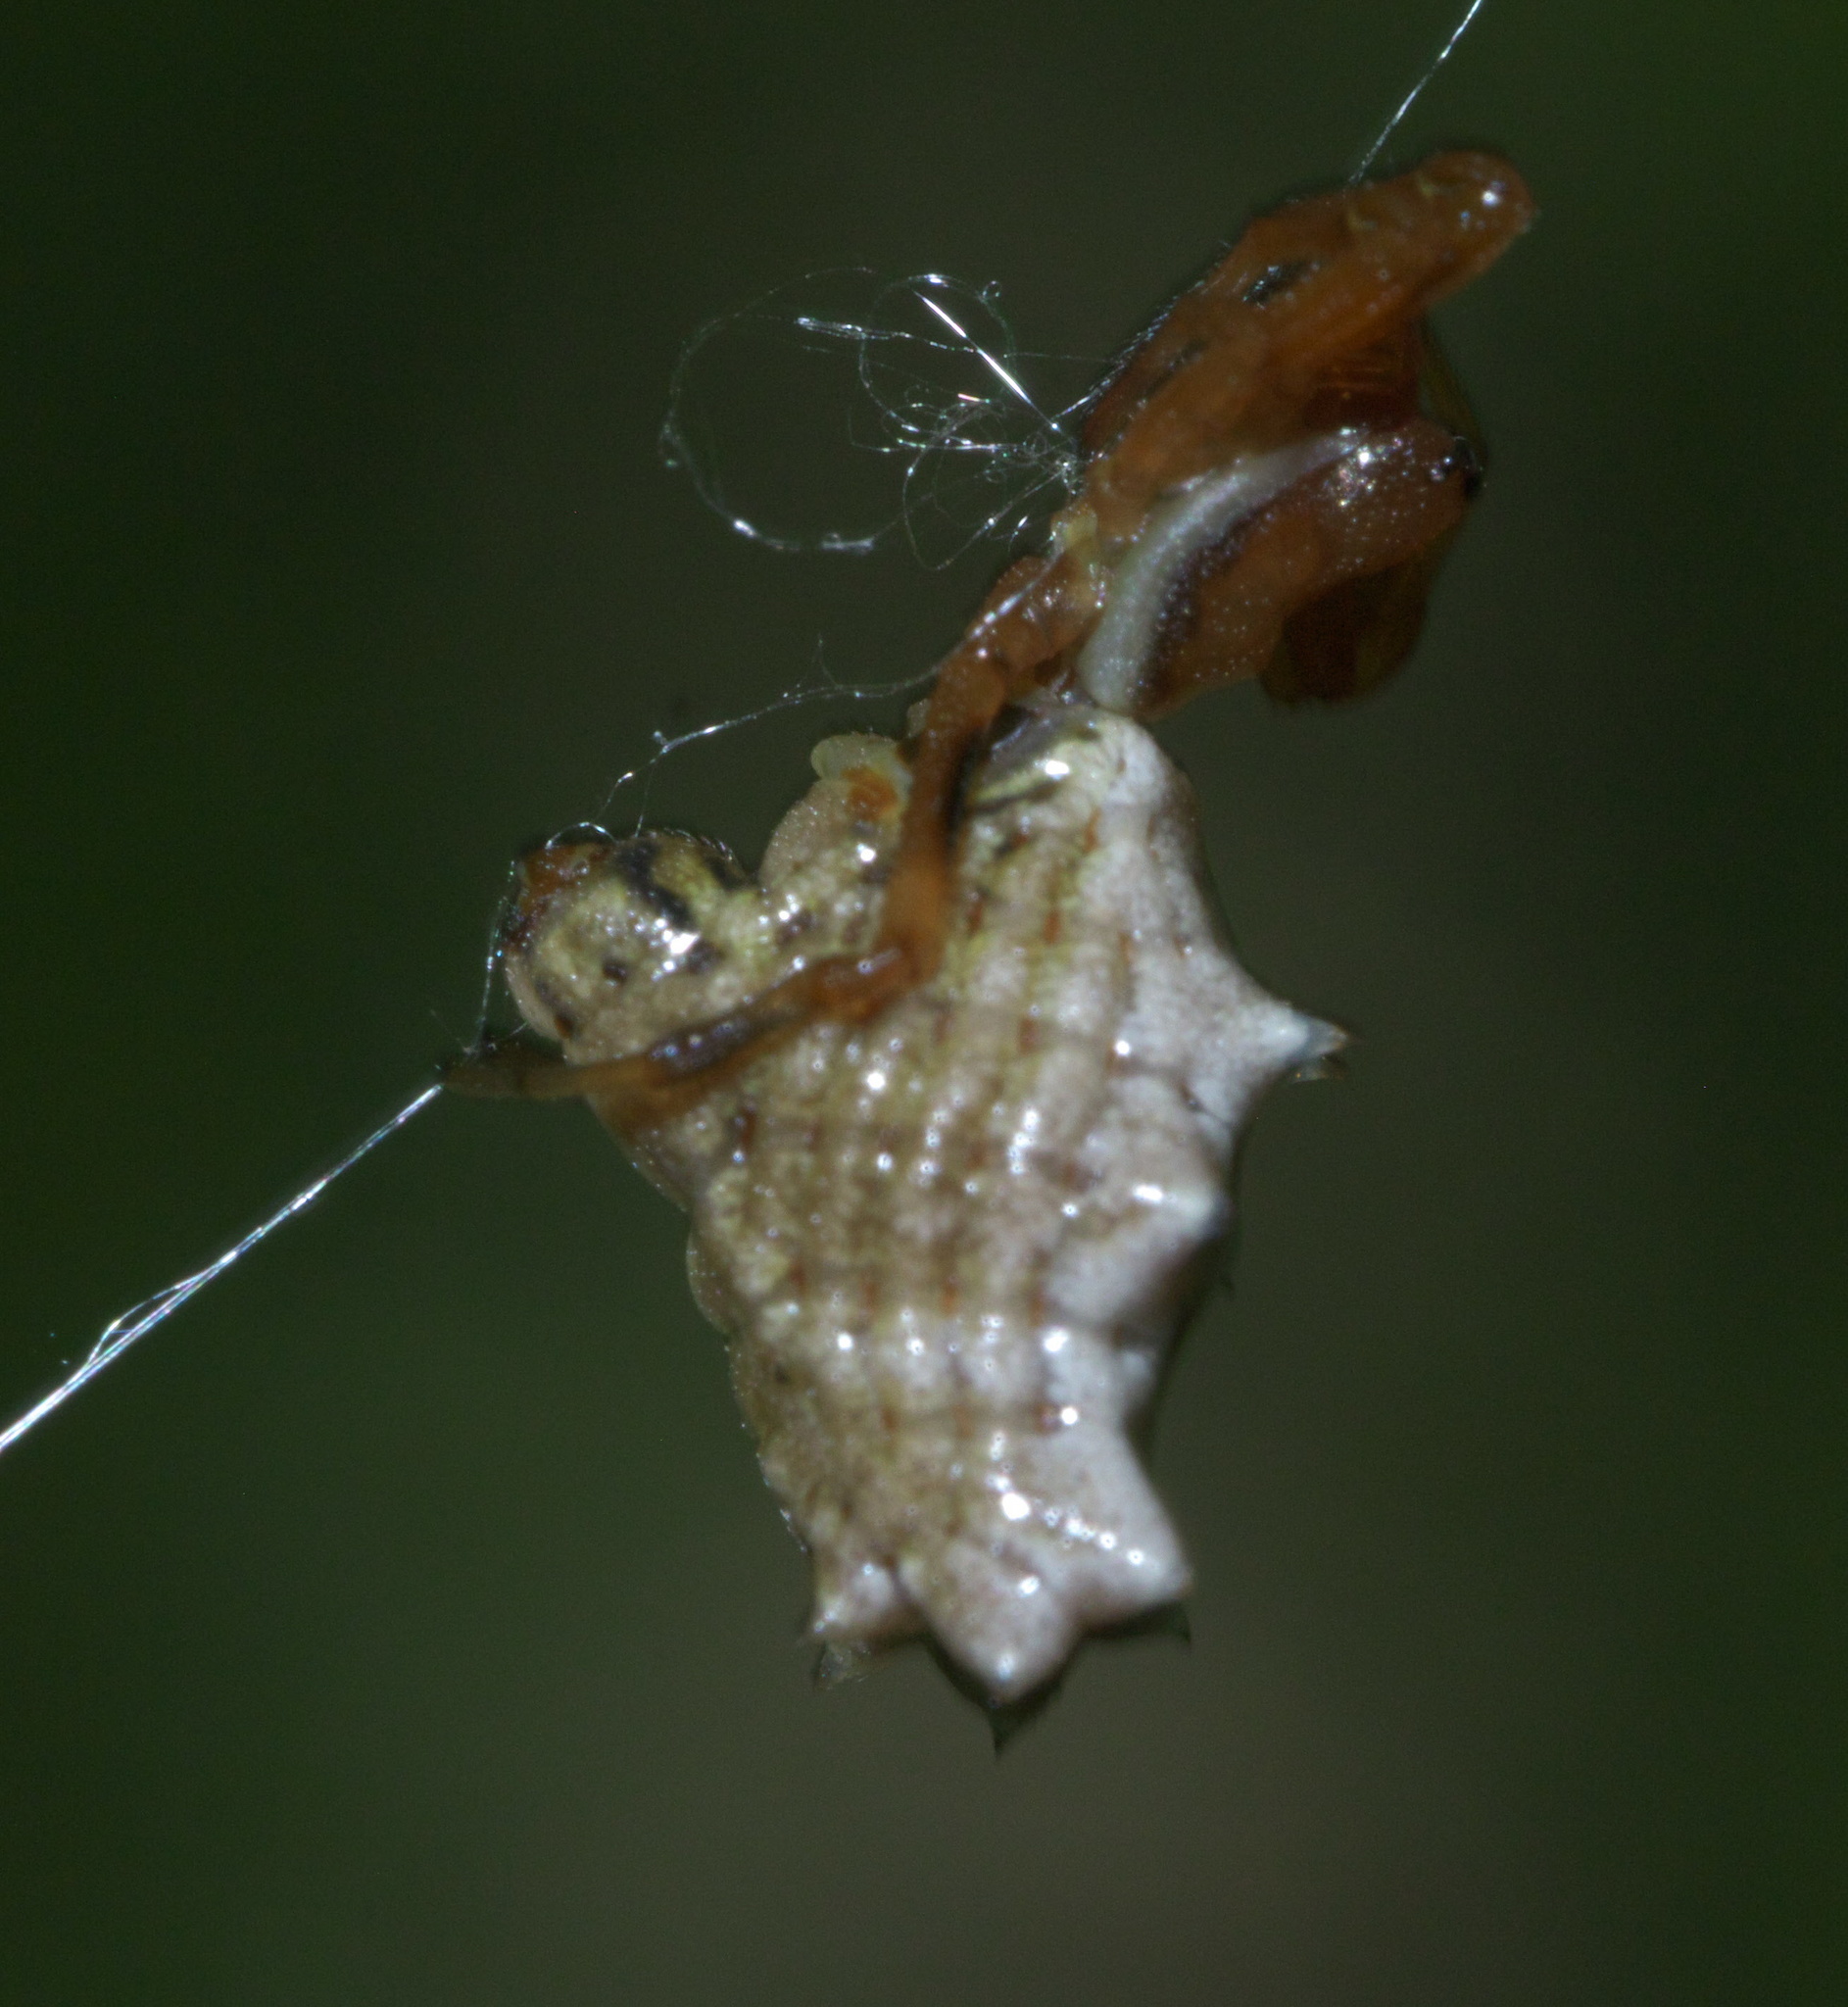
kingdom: Animalia
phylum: Arthropoda
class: Arachnida
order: Araneae
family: Araneidae
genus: Micrathena
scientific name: Micrathena gracilis
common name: Orb weavers
